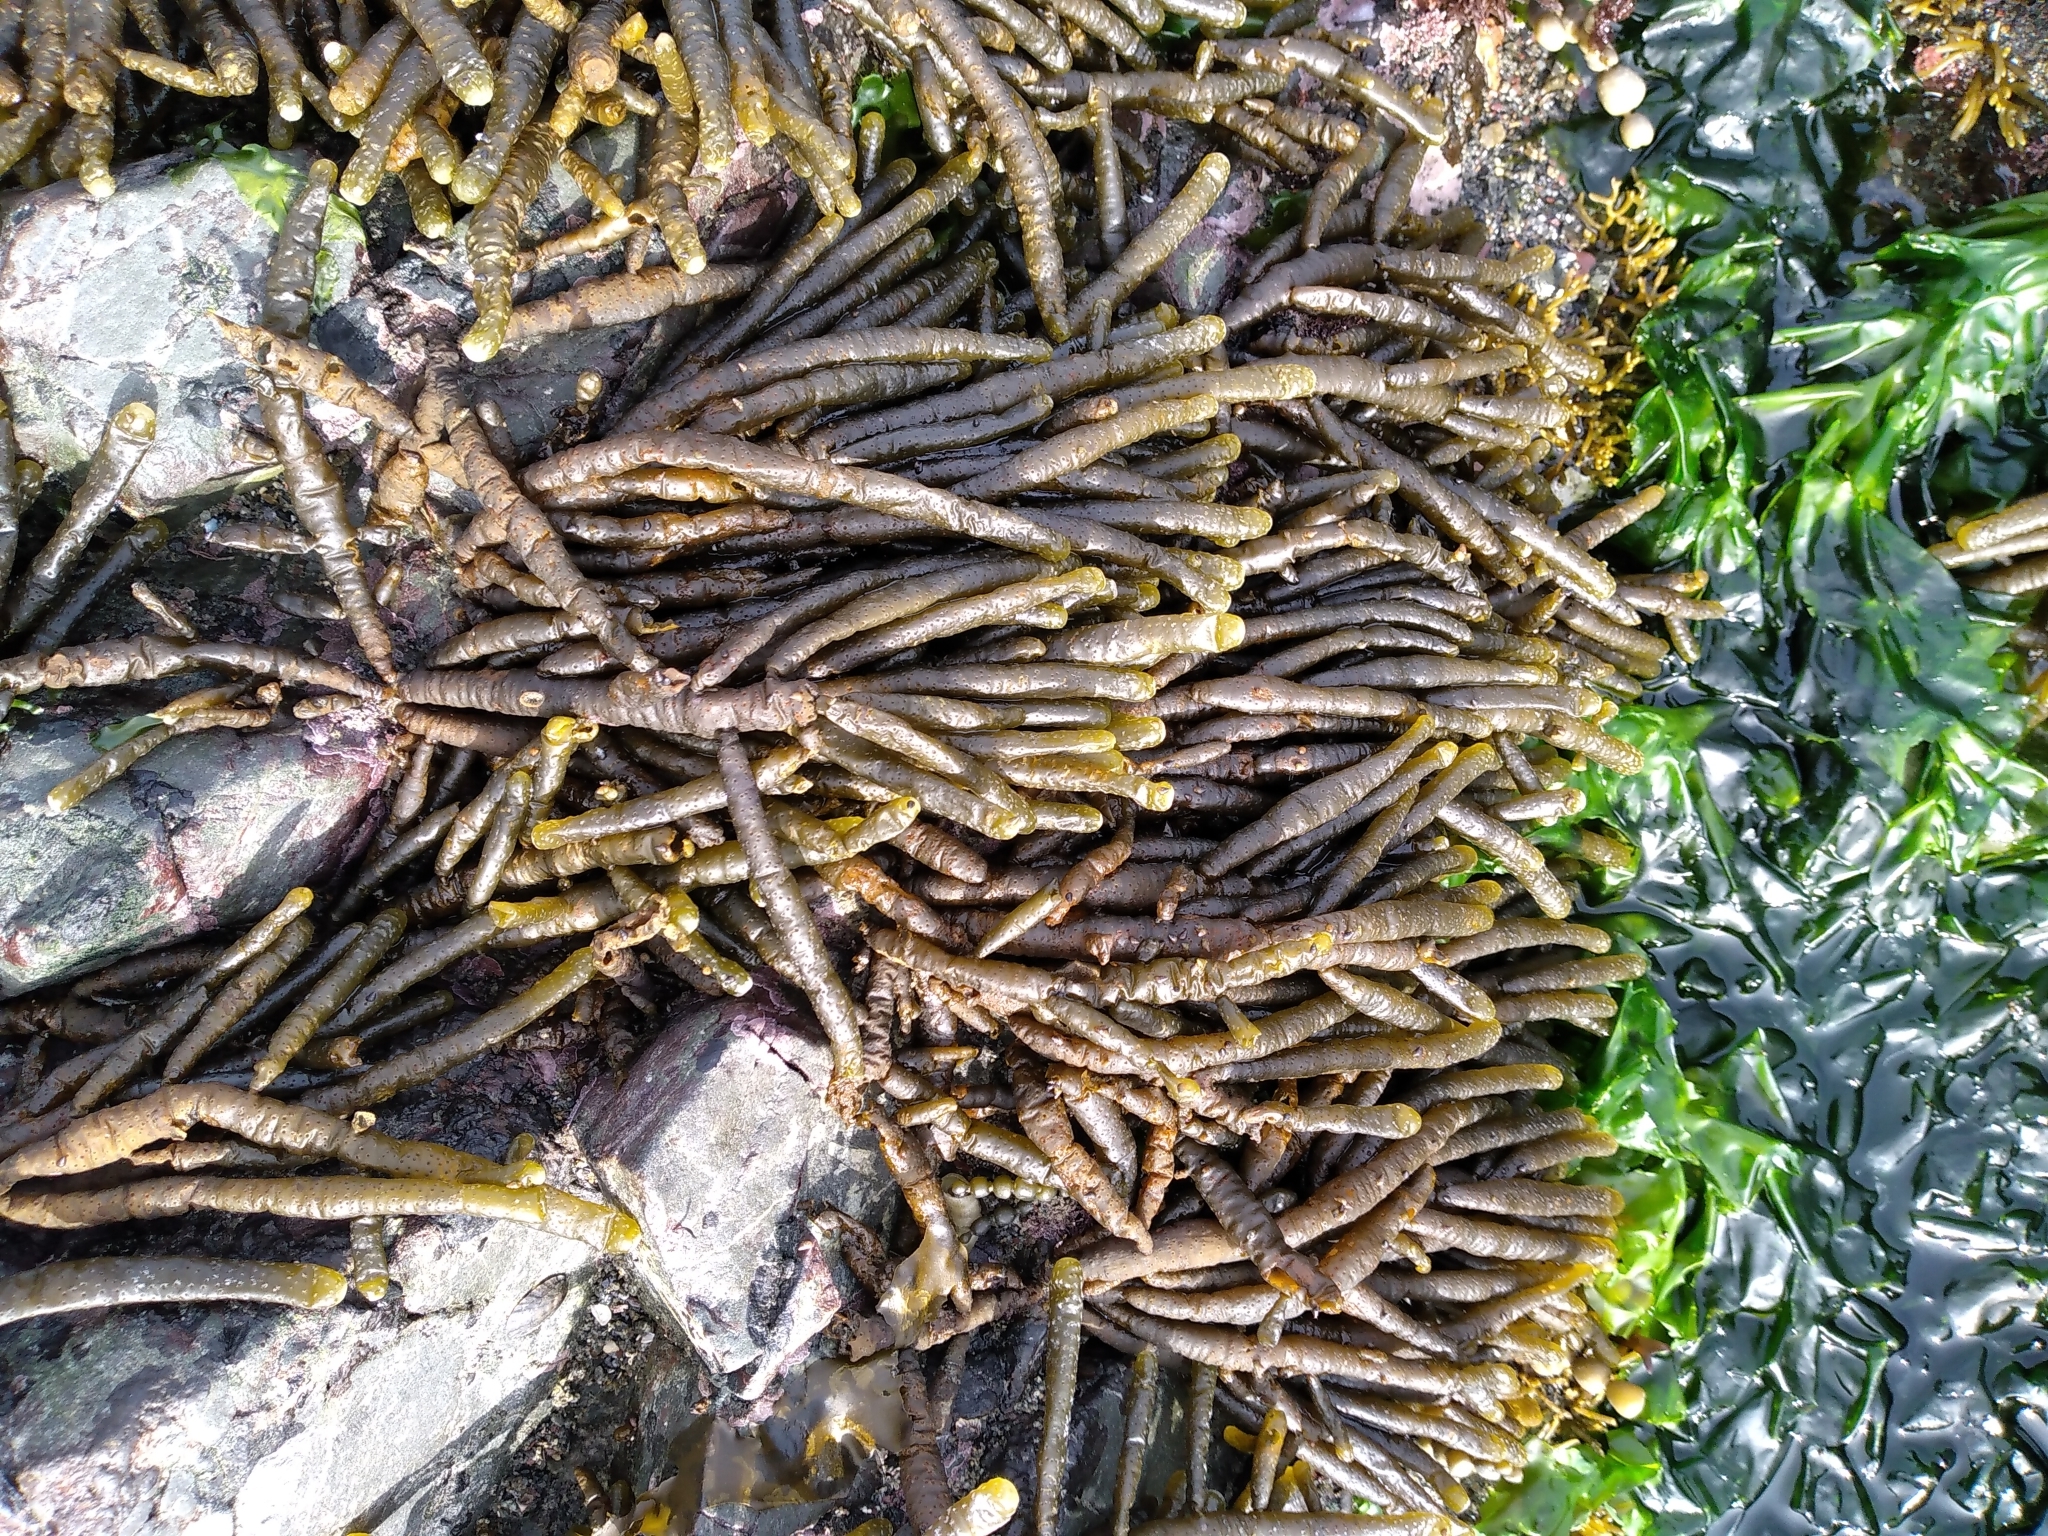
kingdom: Chromista
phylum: Ochrophyta
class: Phaeophyceae
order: Scytothamnales
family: Splachnidiaceae
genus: Splachnidium
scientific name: Splachnidium rugosum
